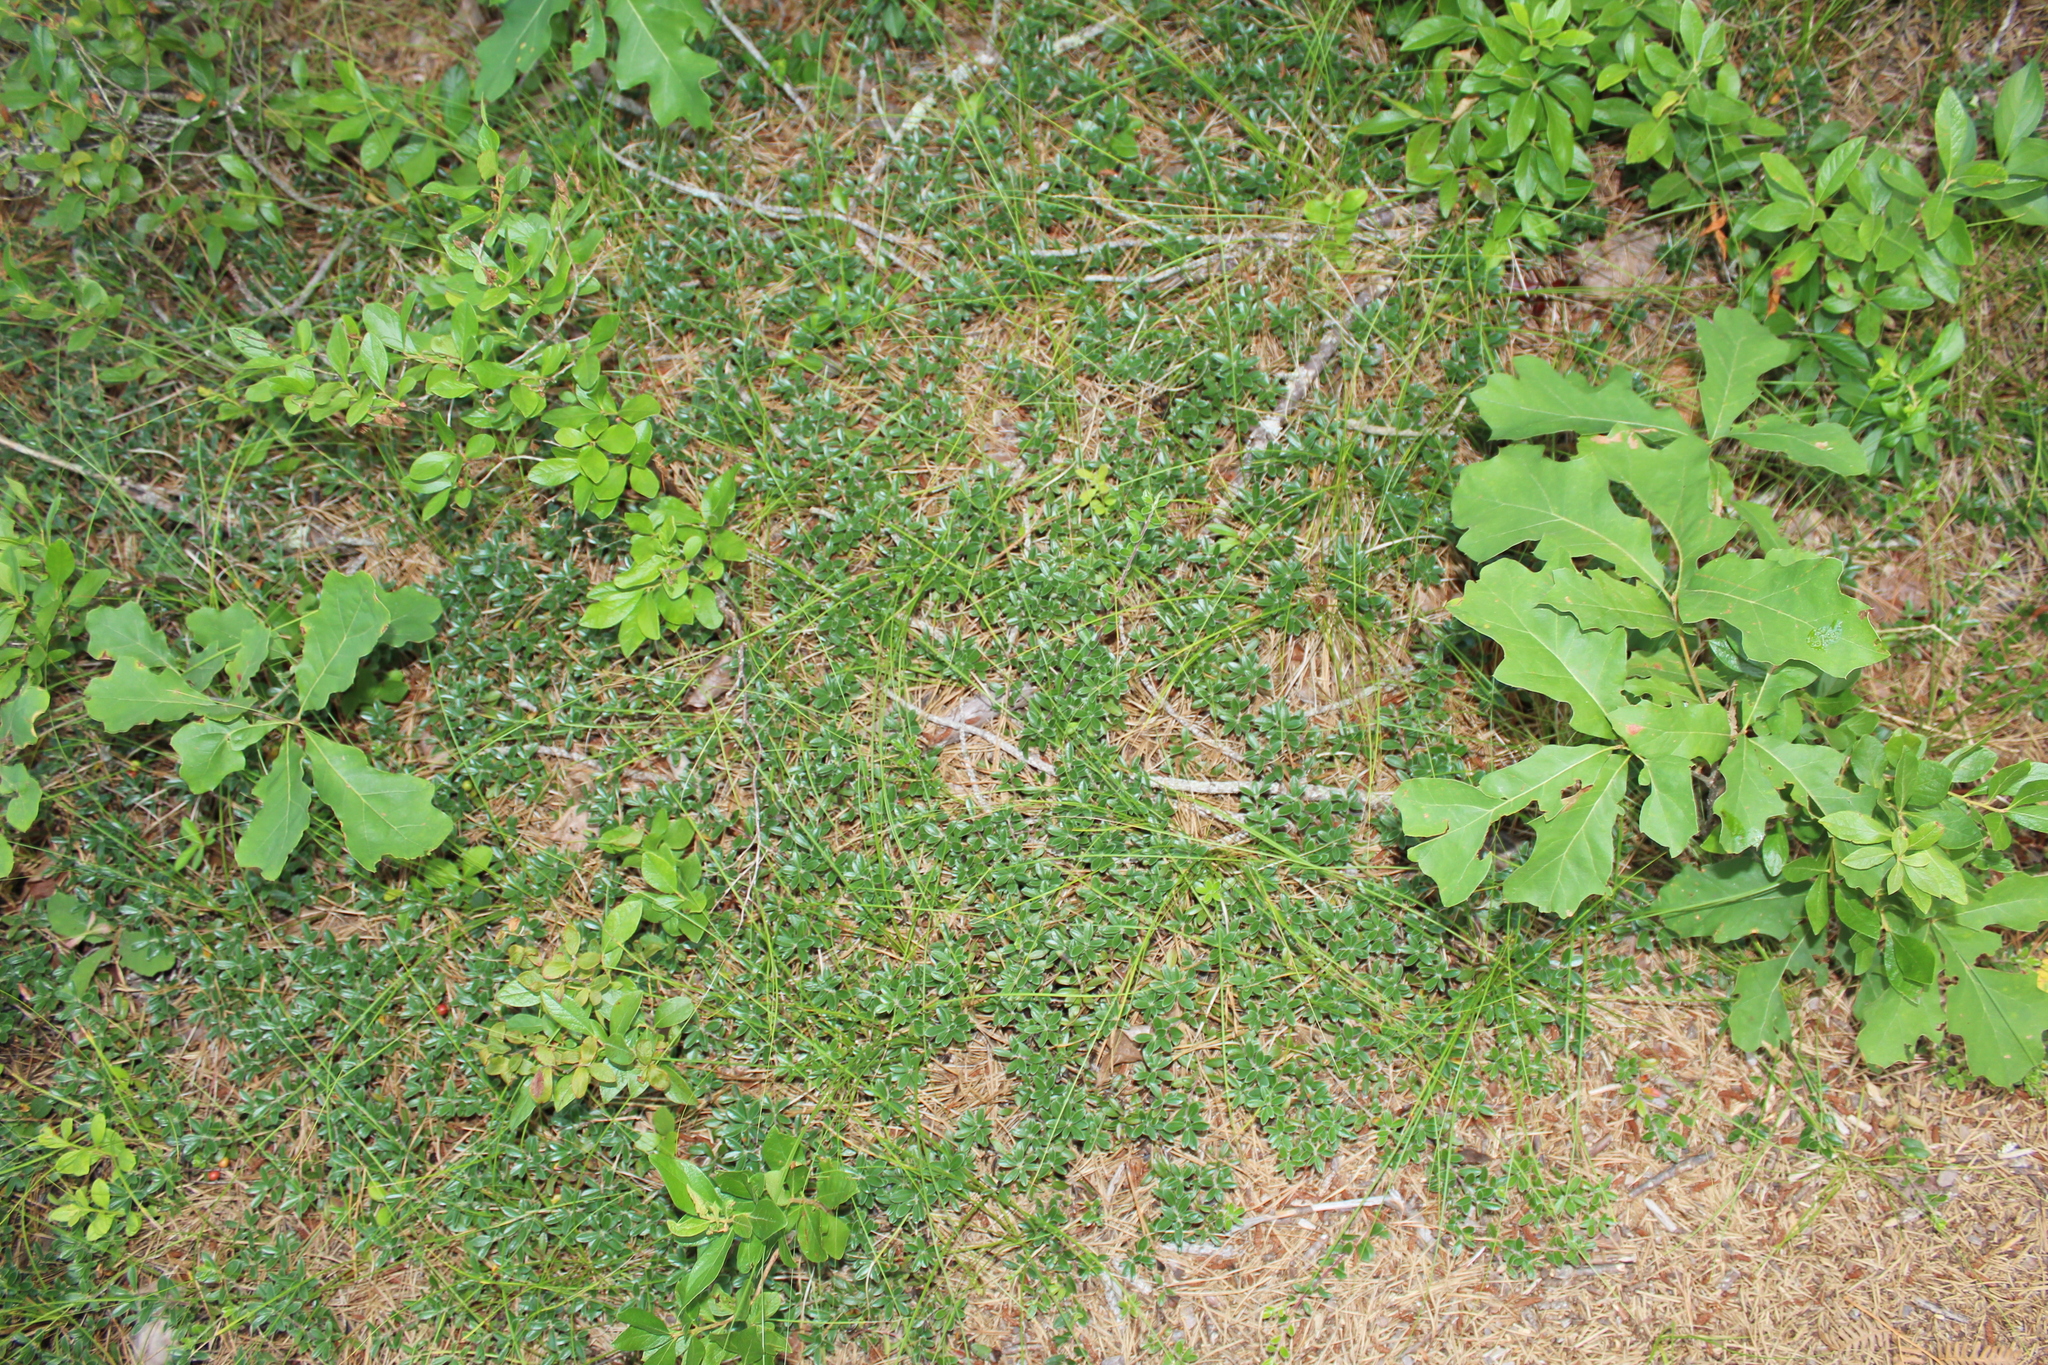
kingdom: Plantae
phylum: Tracheophyta
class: Magnoliopsida
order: Ericales
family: Ericaceae
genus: Arctostaphylos
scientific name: Arctostaphylos uva-ursi
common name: Bearberry
